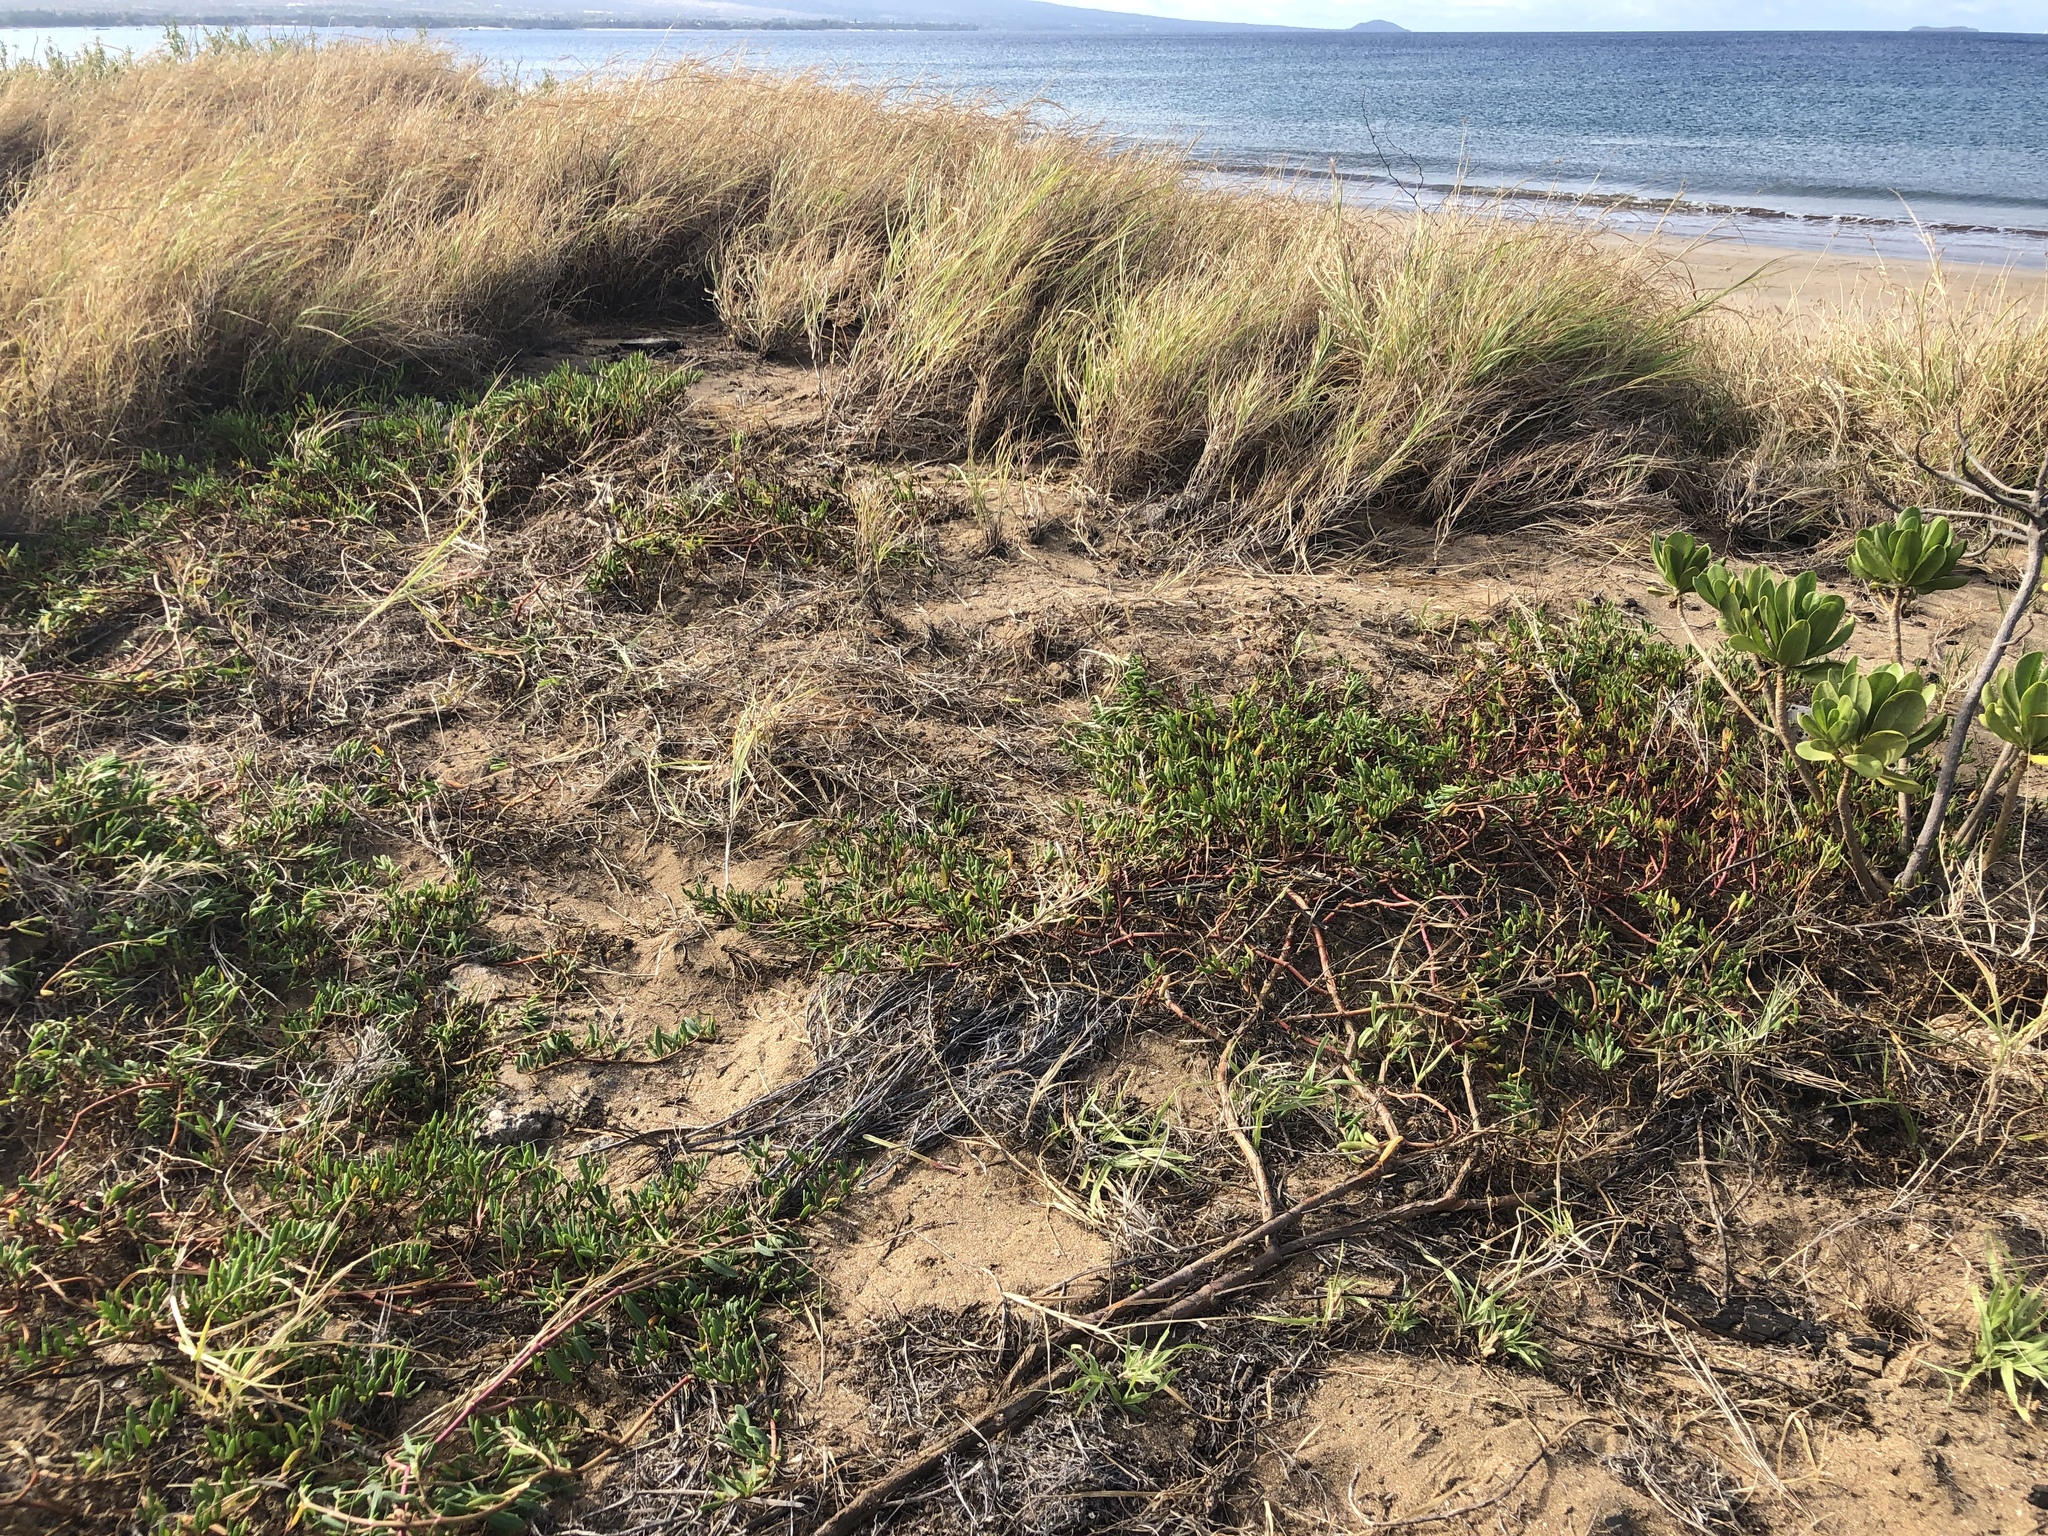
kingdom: Plantae
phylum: Tracheophyta
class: Magnoliopsida
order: Caryophyllales
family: Aizoaceae
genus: Sesuvium
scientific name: Sesuvium portulacastrum
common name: Sea-purslane
